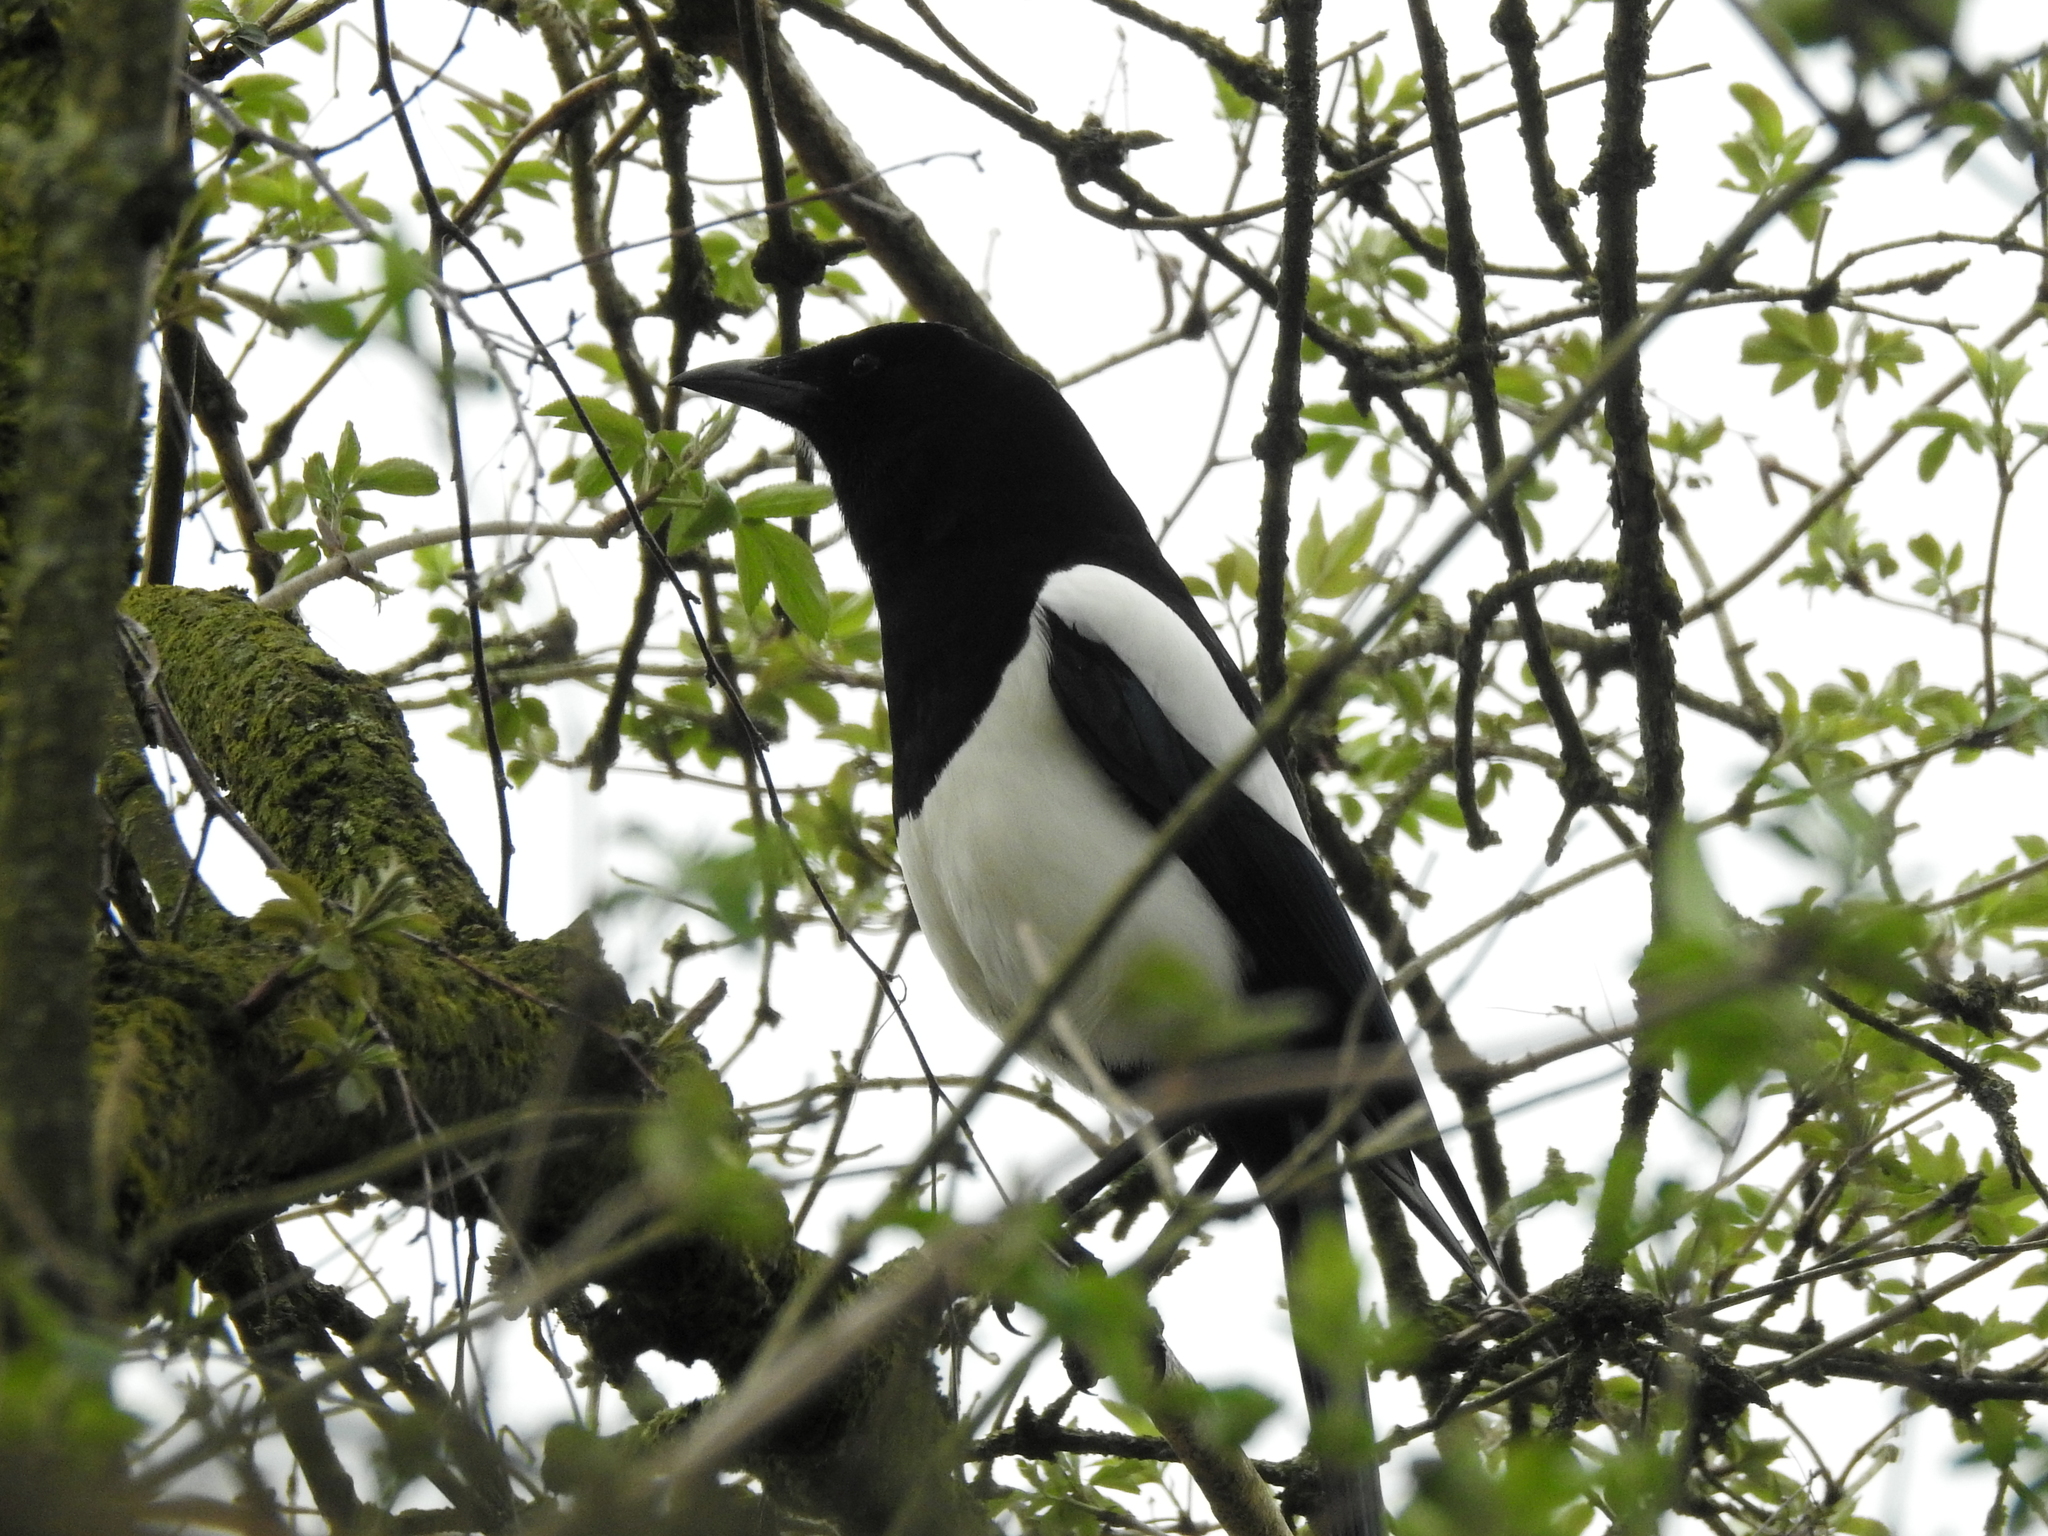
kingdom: Animalia
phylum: Chordata
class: Aves
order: Passeriformes
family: Corvidae
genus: Pica
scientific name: Pica pica
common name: Eurasian magpie
